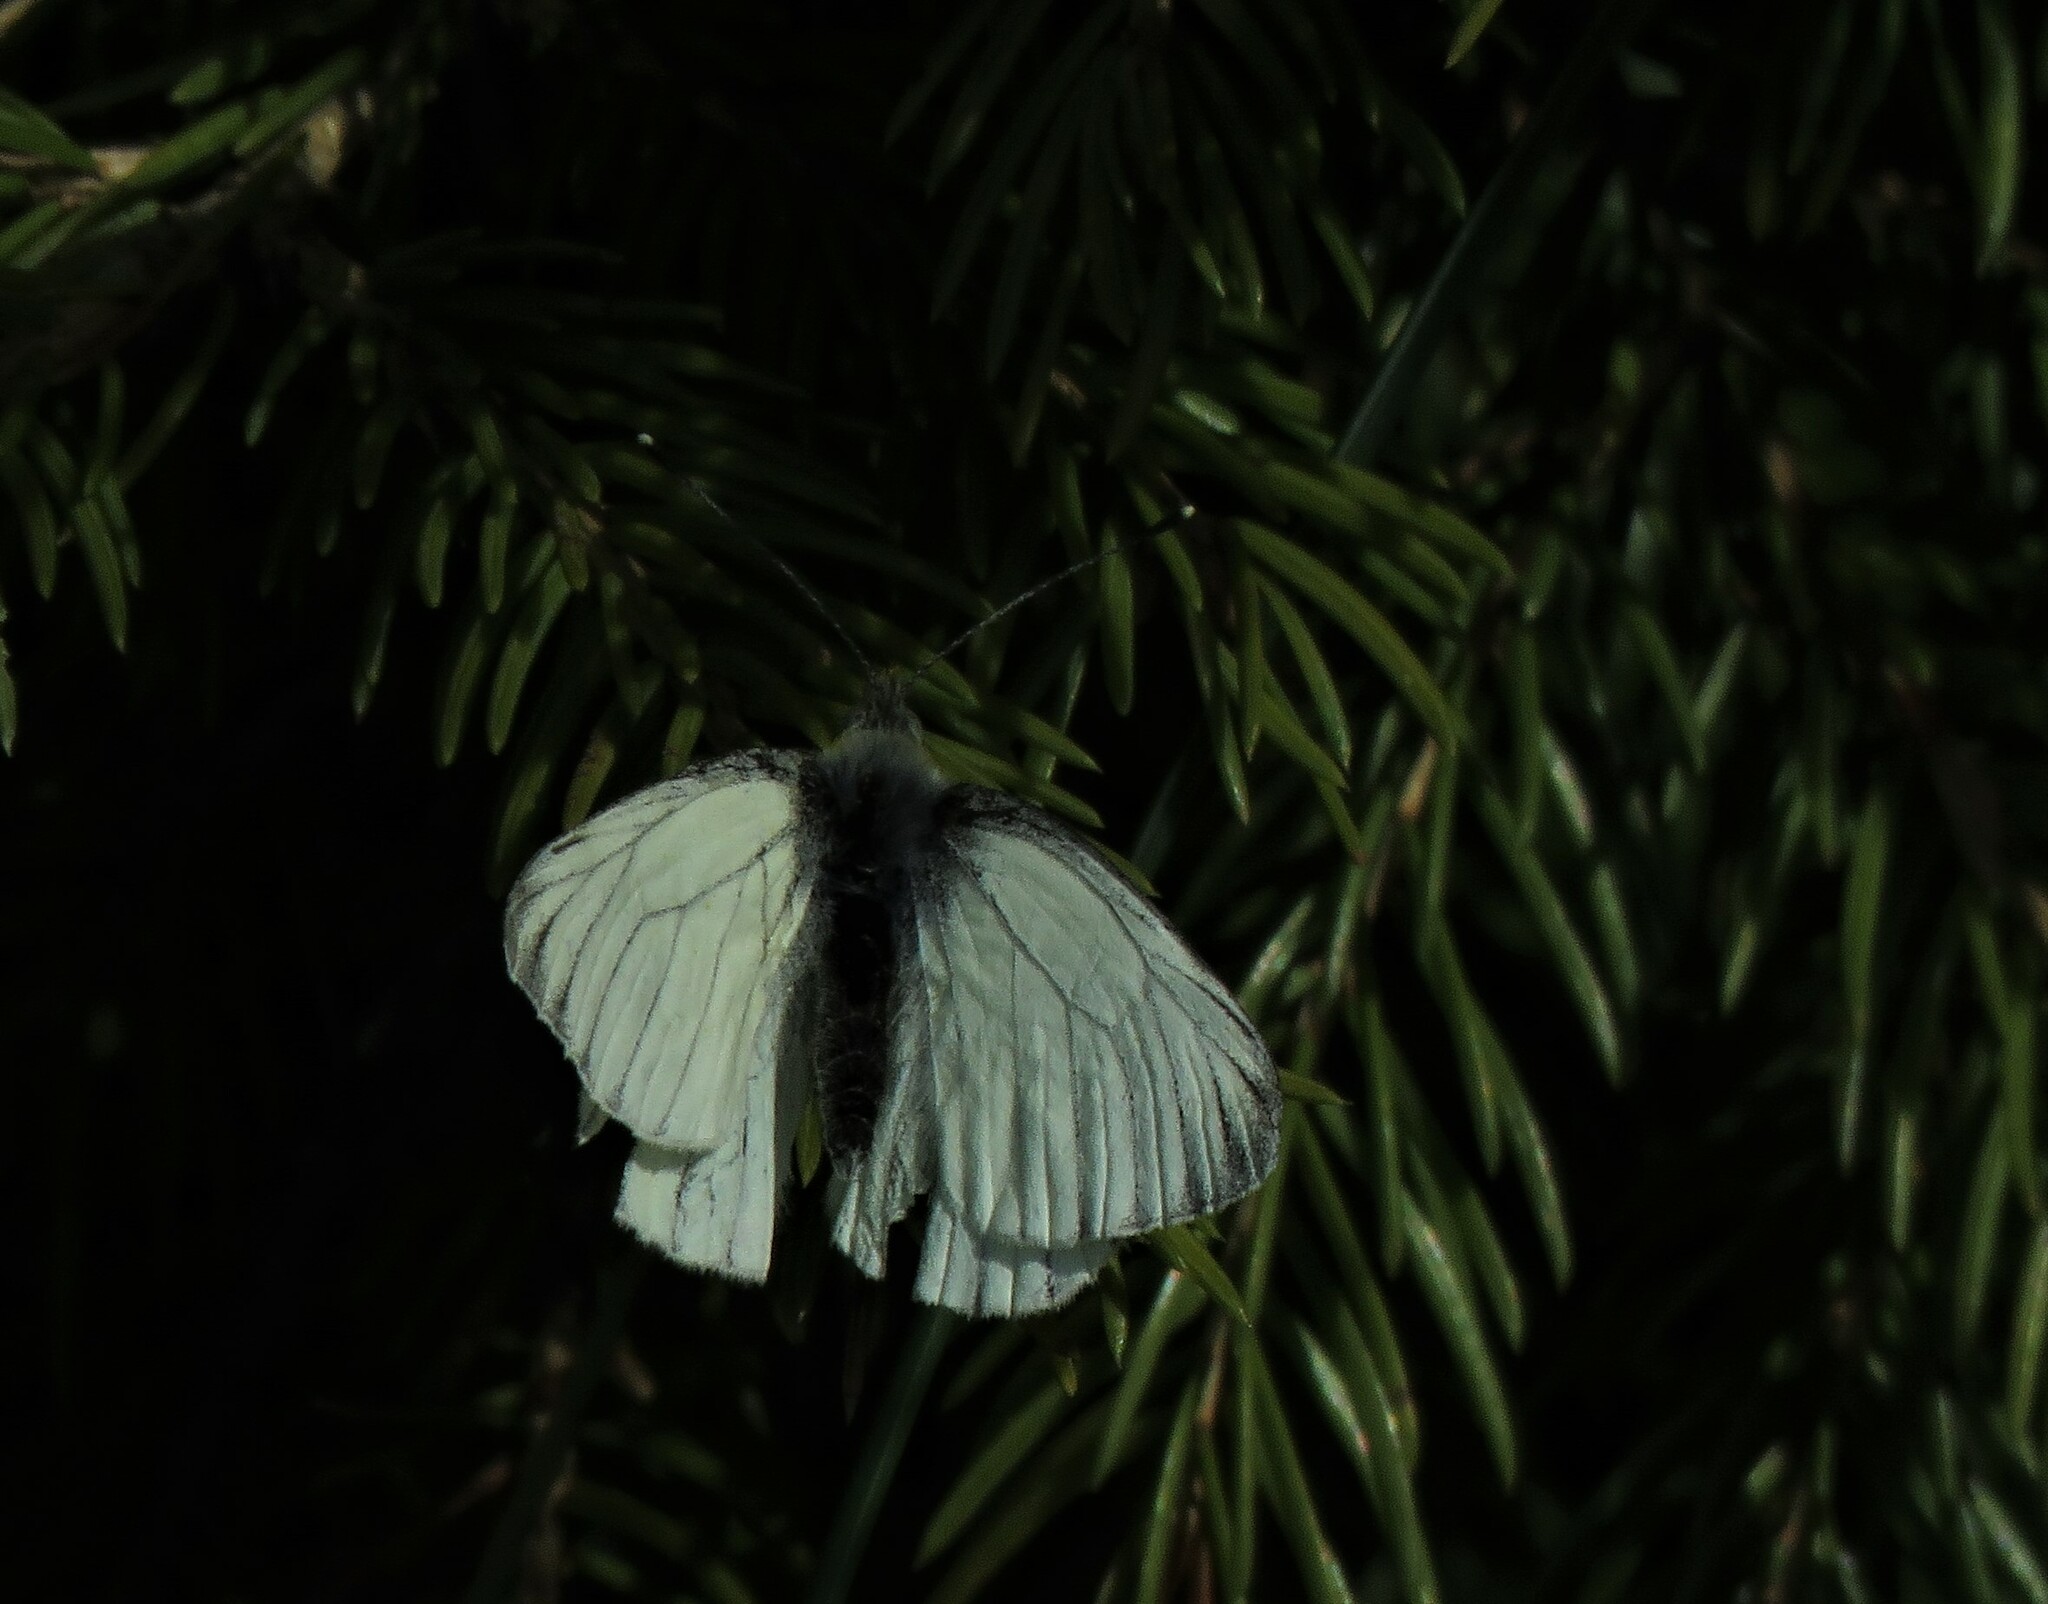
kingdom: Animalia
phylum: Arthropoda
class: Insecta
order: Lepidoptera
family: Pieridae
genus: Pieris
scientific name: Pieris napi
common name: Green-veined white
